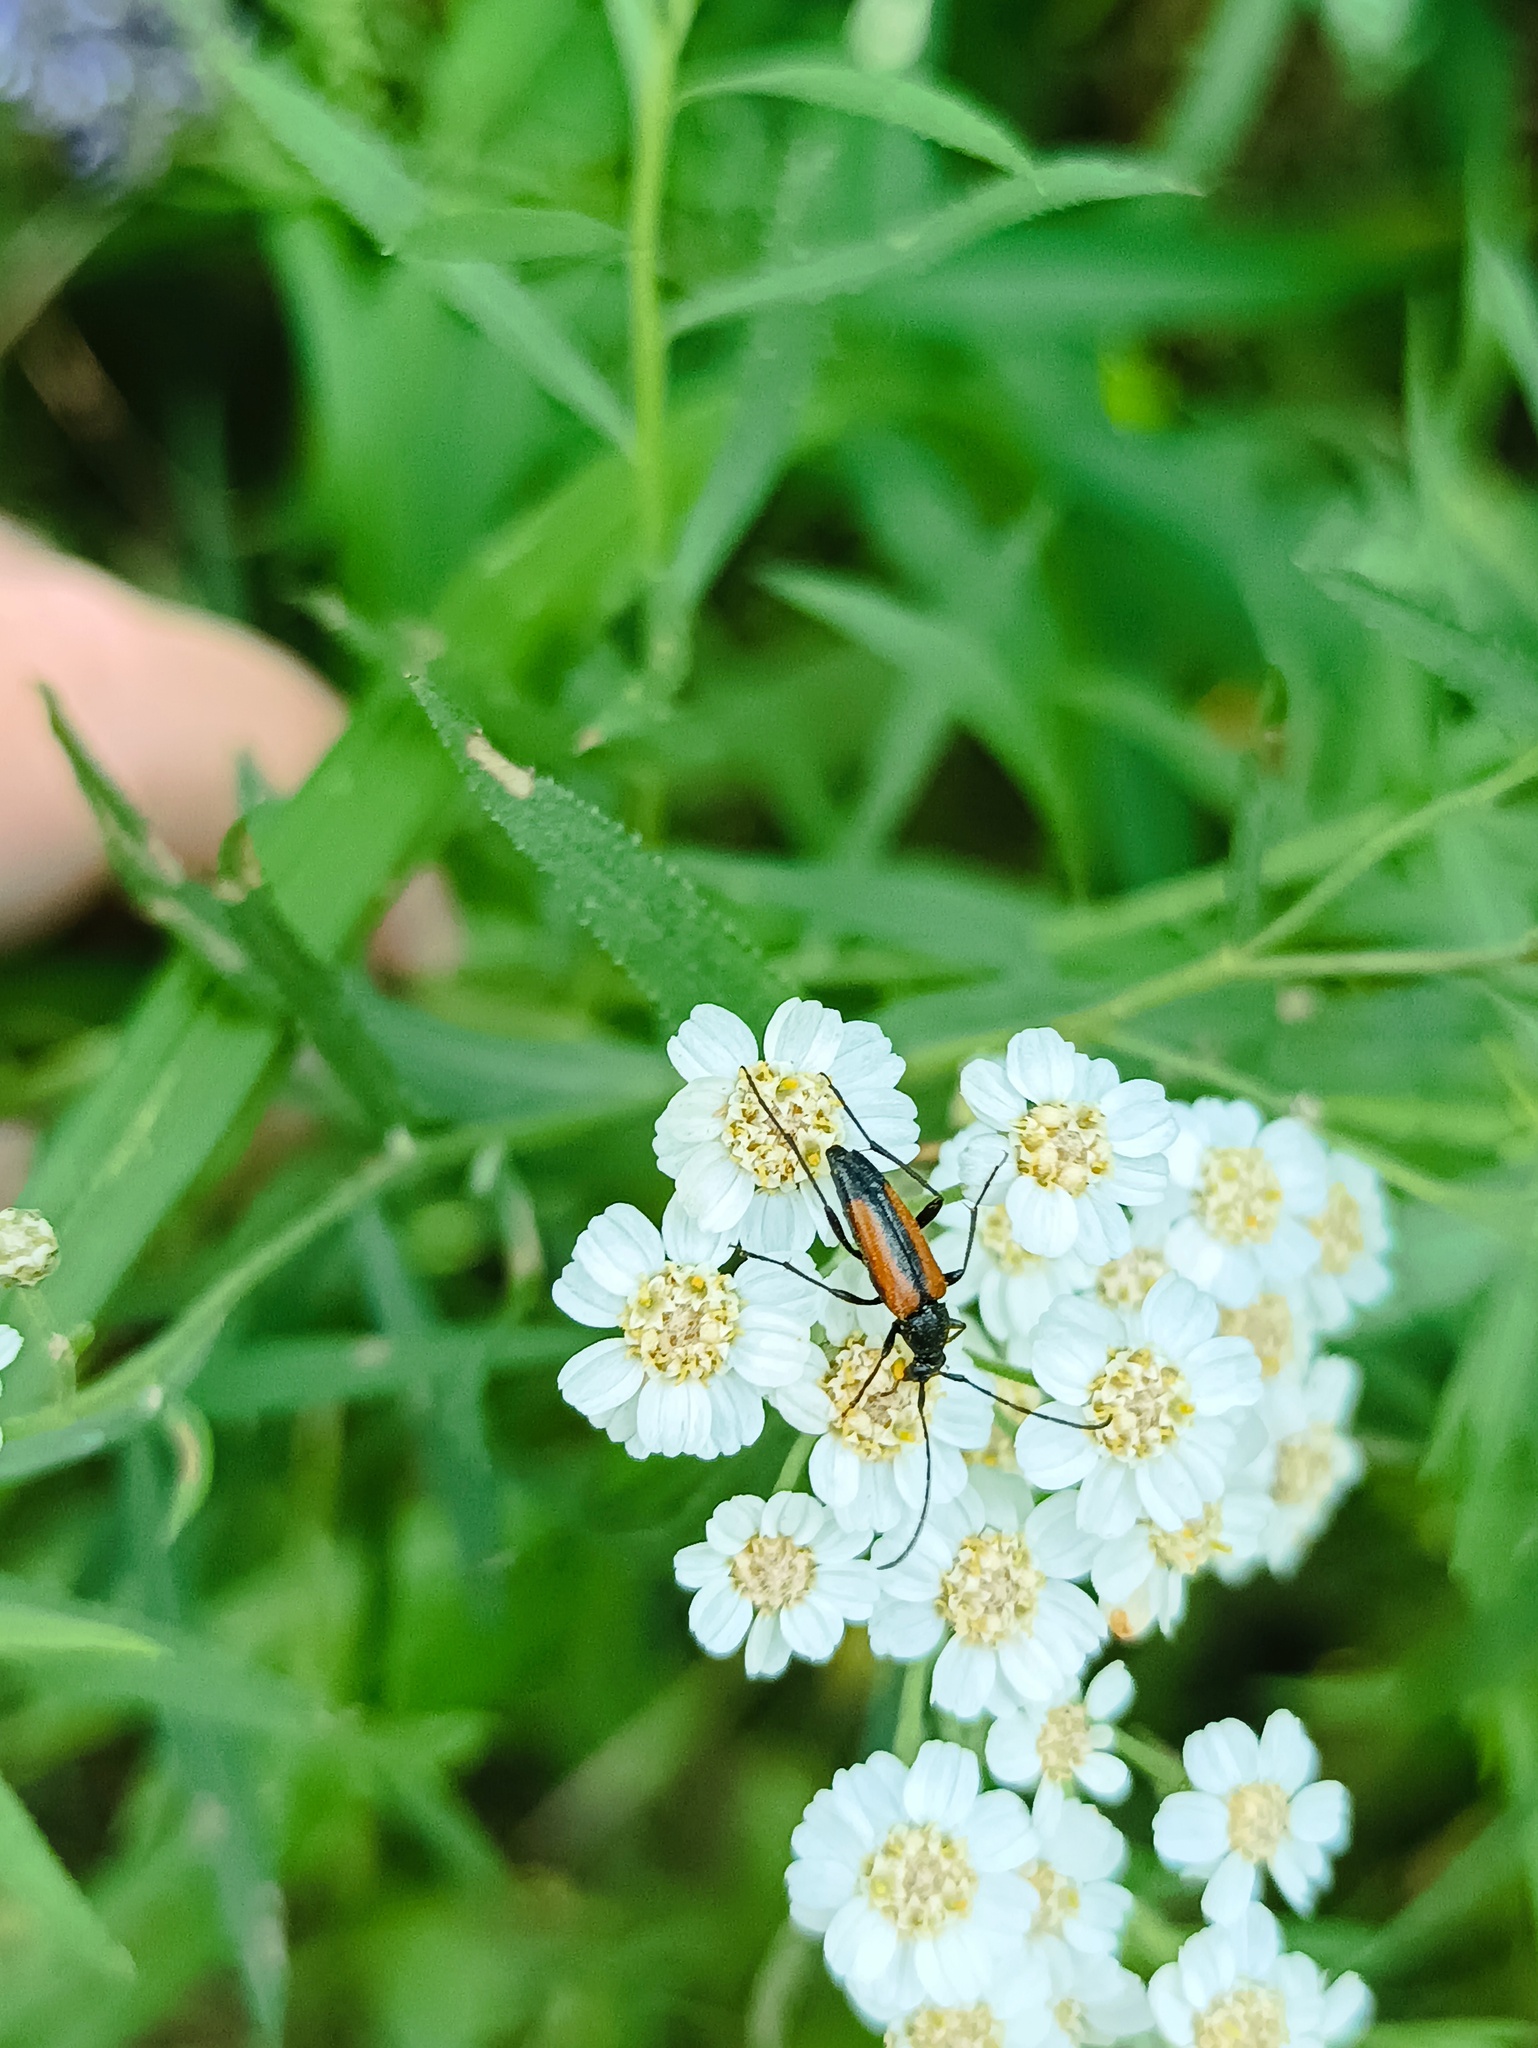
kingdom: Animalia
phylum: Arthropoda
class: Insecta
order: Coleoptera
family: Cerambycidae
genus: Stenurella
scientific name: Stenurella melanura
